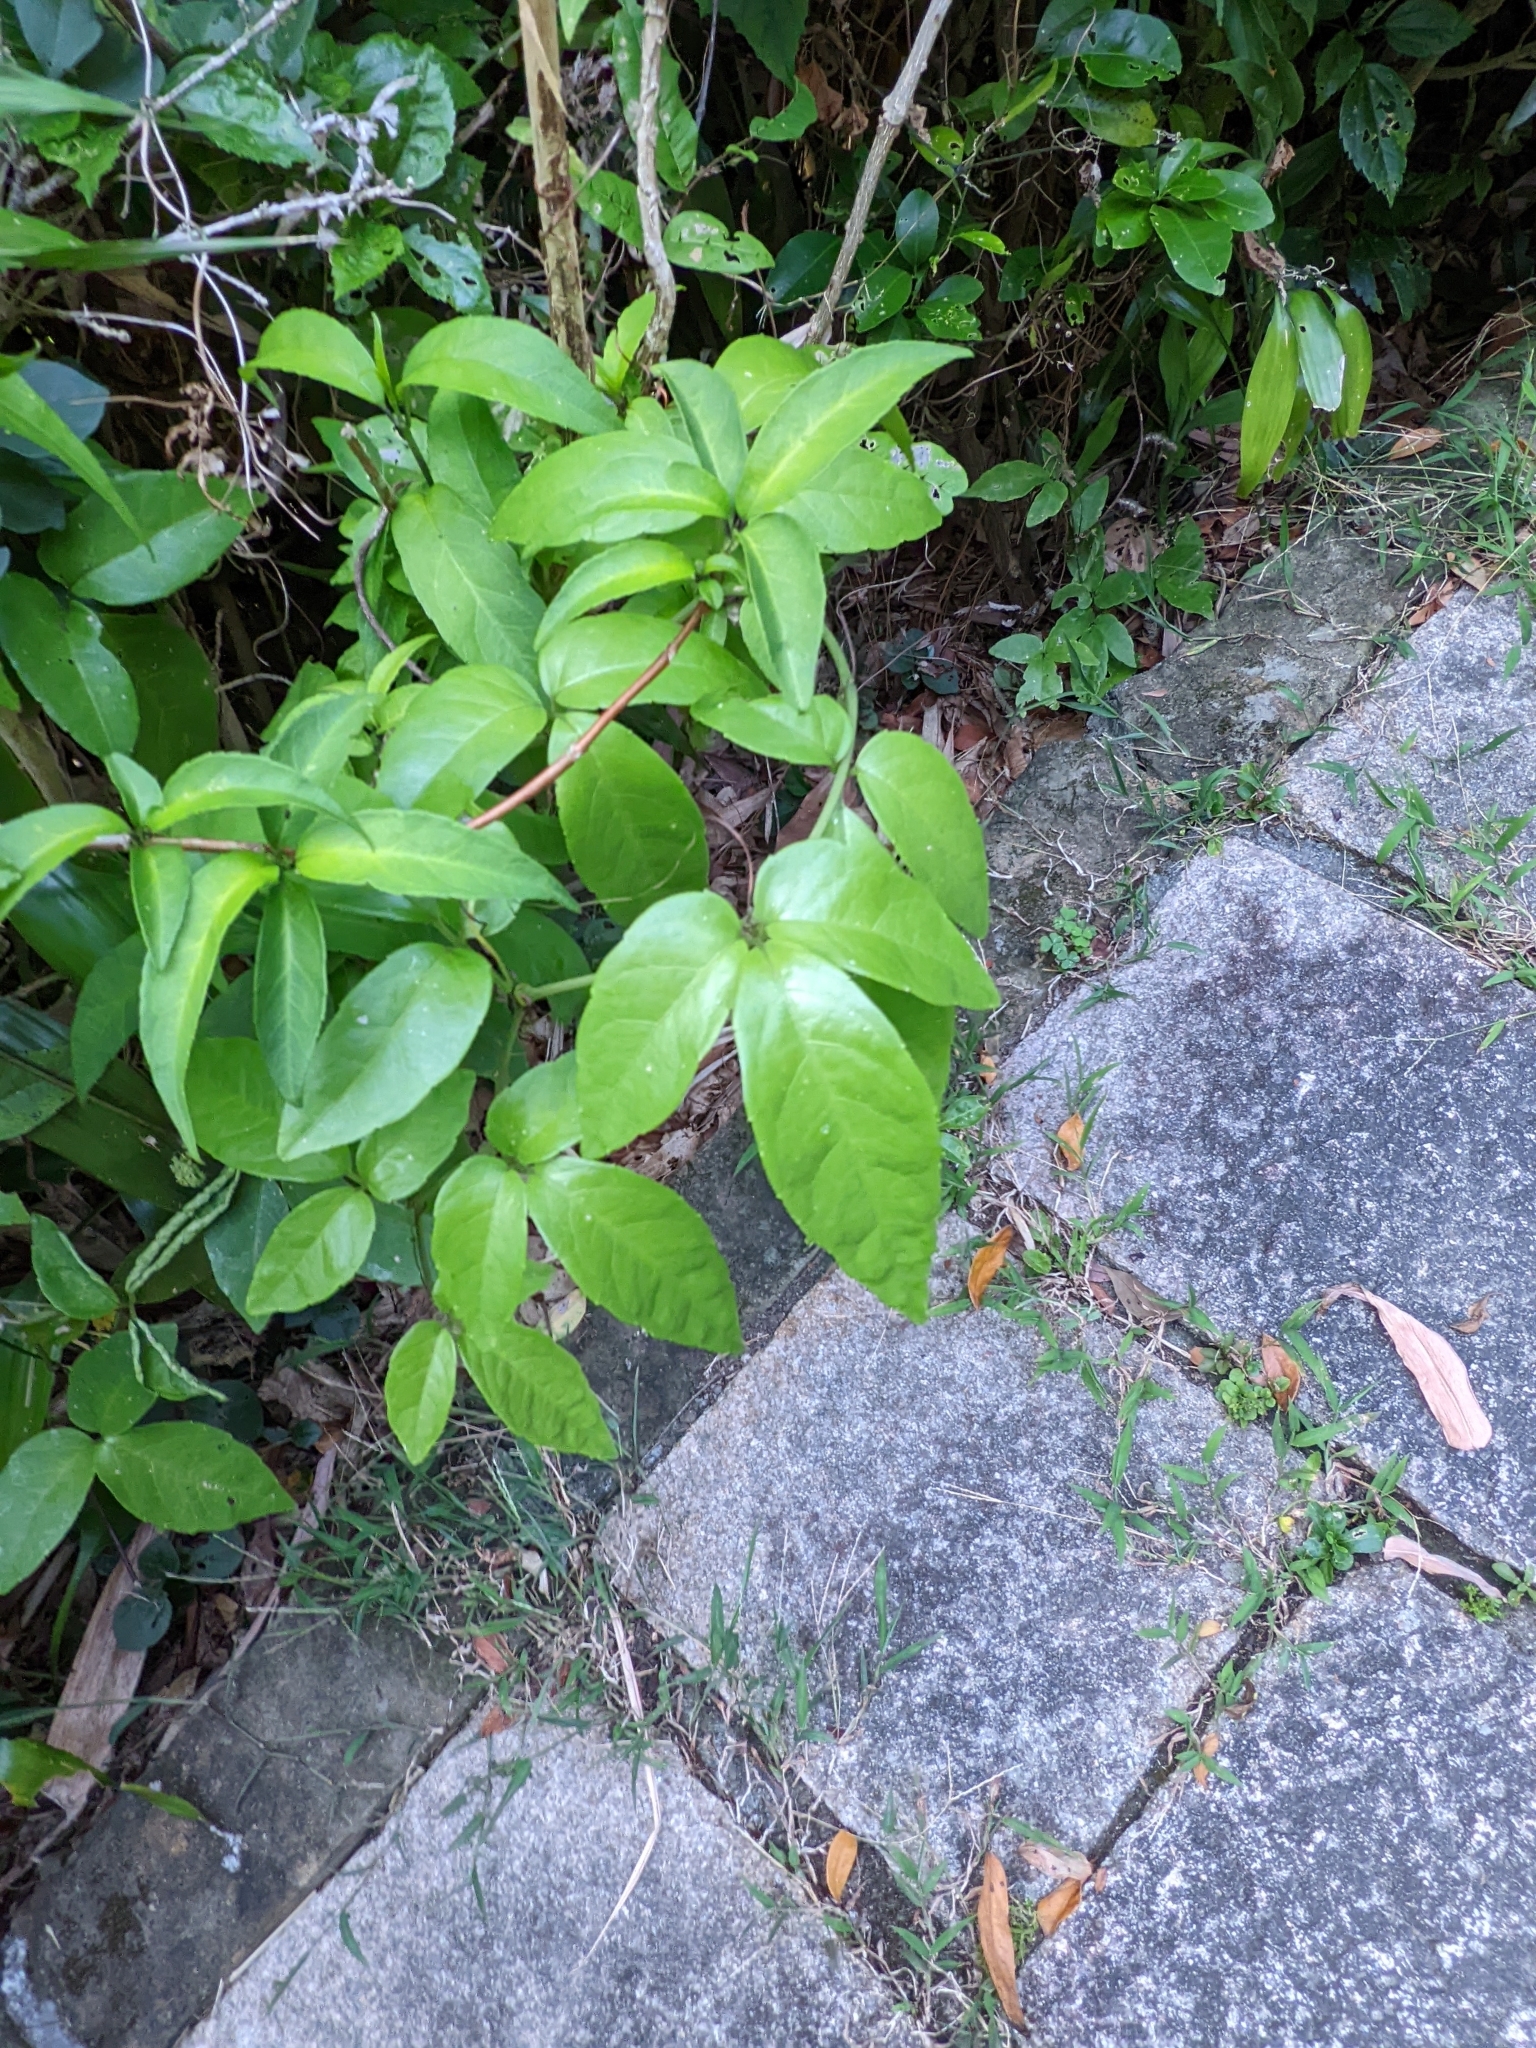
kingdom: Plantae
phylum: Tracheophyta
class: Magnoliopsida
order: Vitales
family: Vitaceae
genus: Tetrastigma
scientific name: Tetrastigma hemsleyanum
